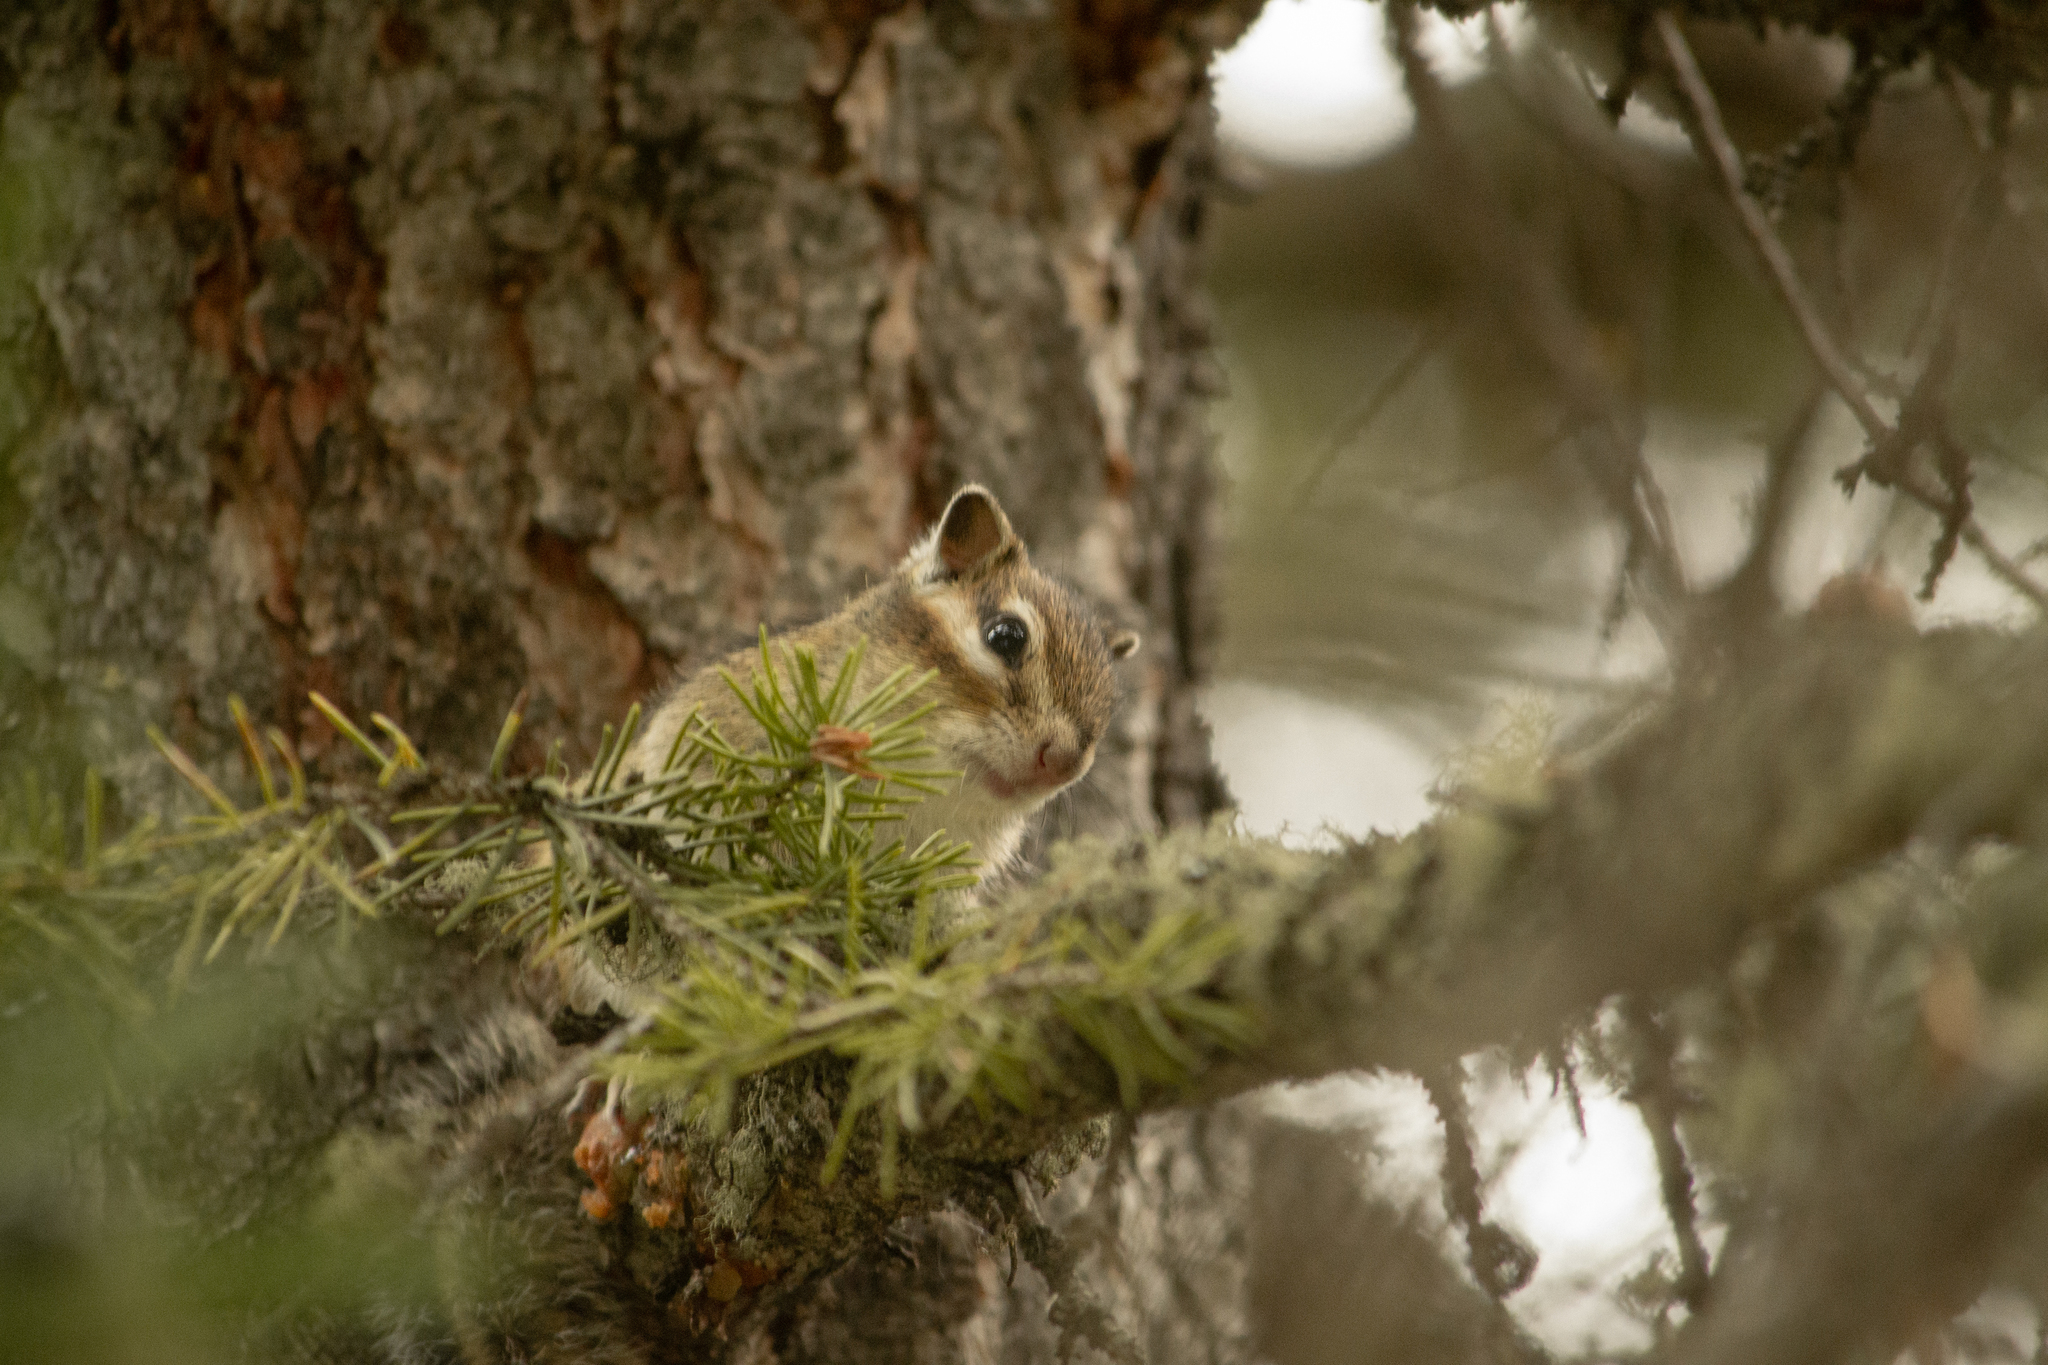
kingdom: Animalia
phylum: Chordata
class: Mammalia
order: Rodentia
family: Sciuridae
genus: Tamias
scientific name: Tamias sibiricus
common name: Siberian chipmunk
